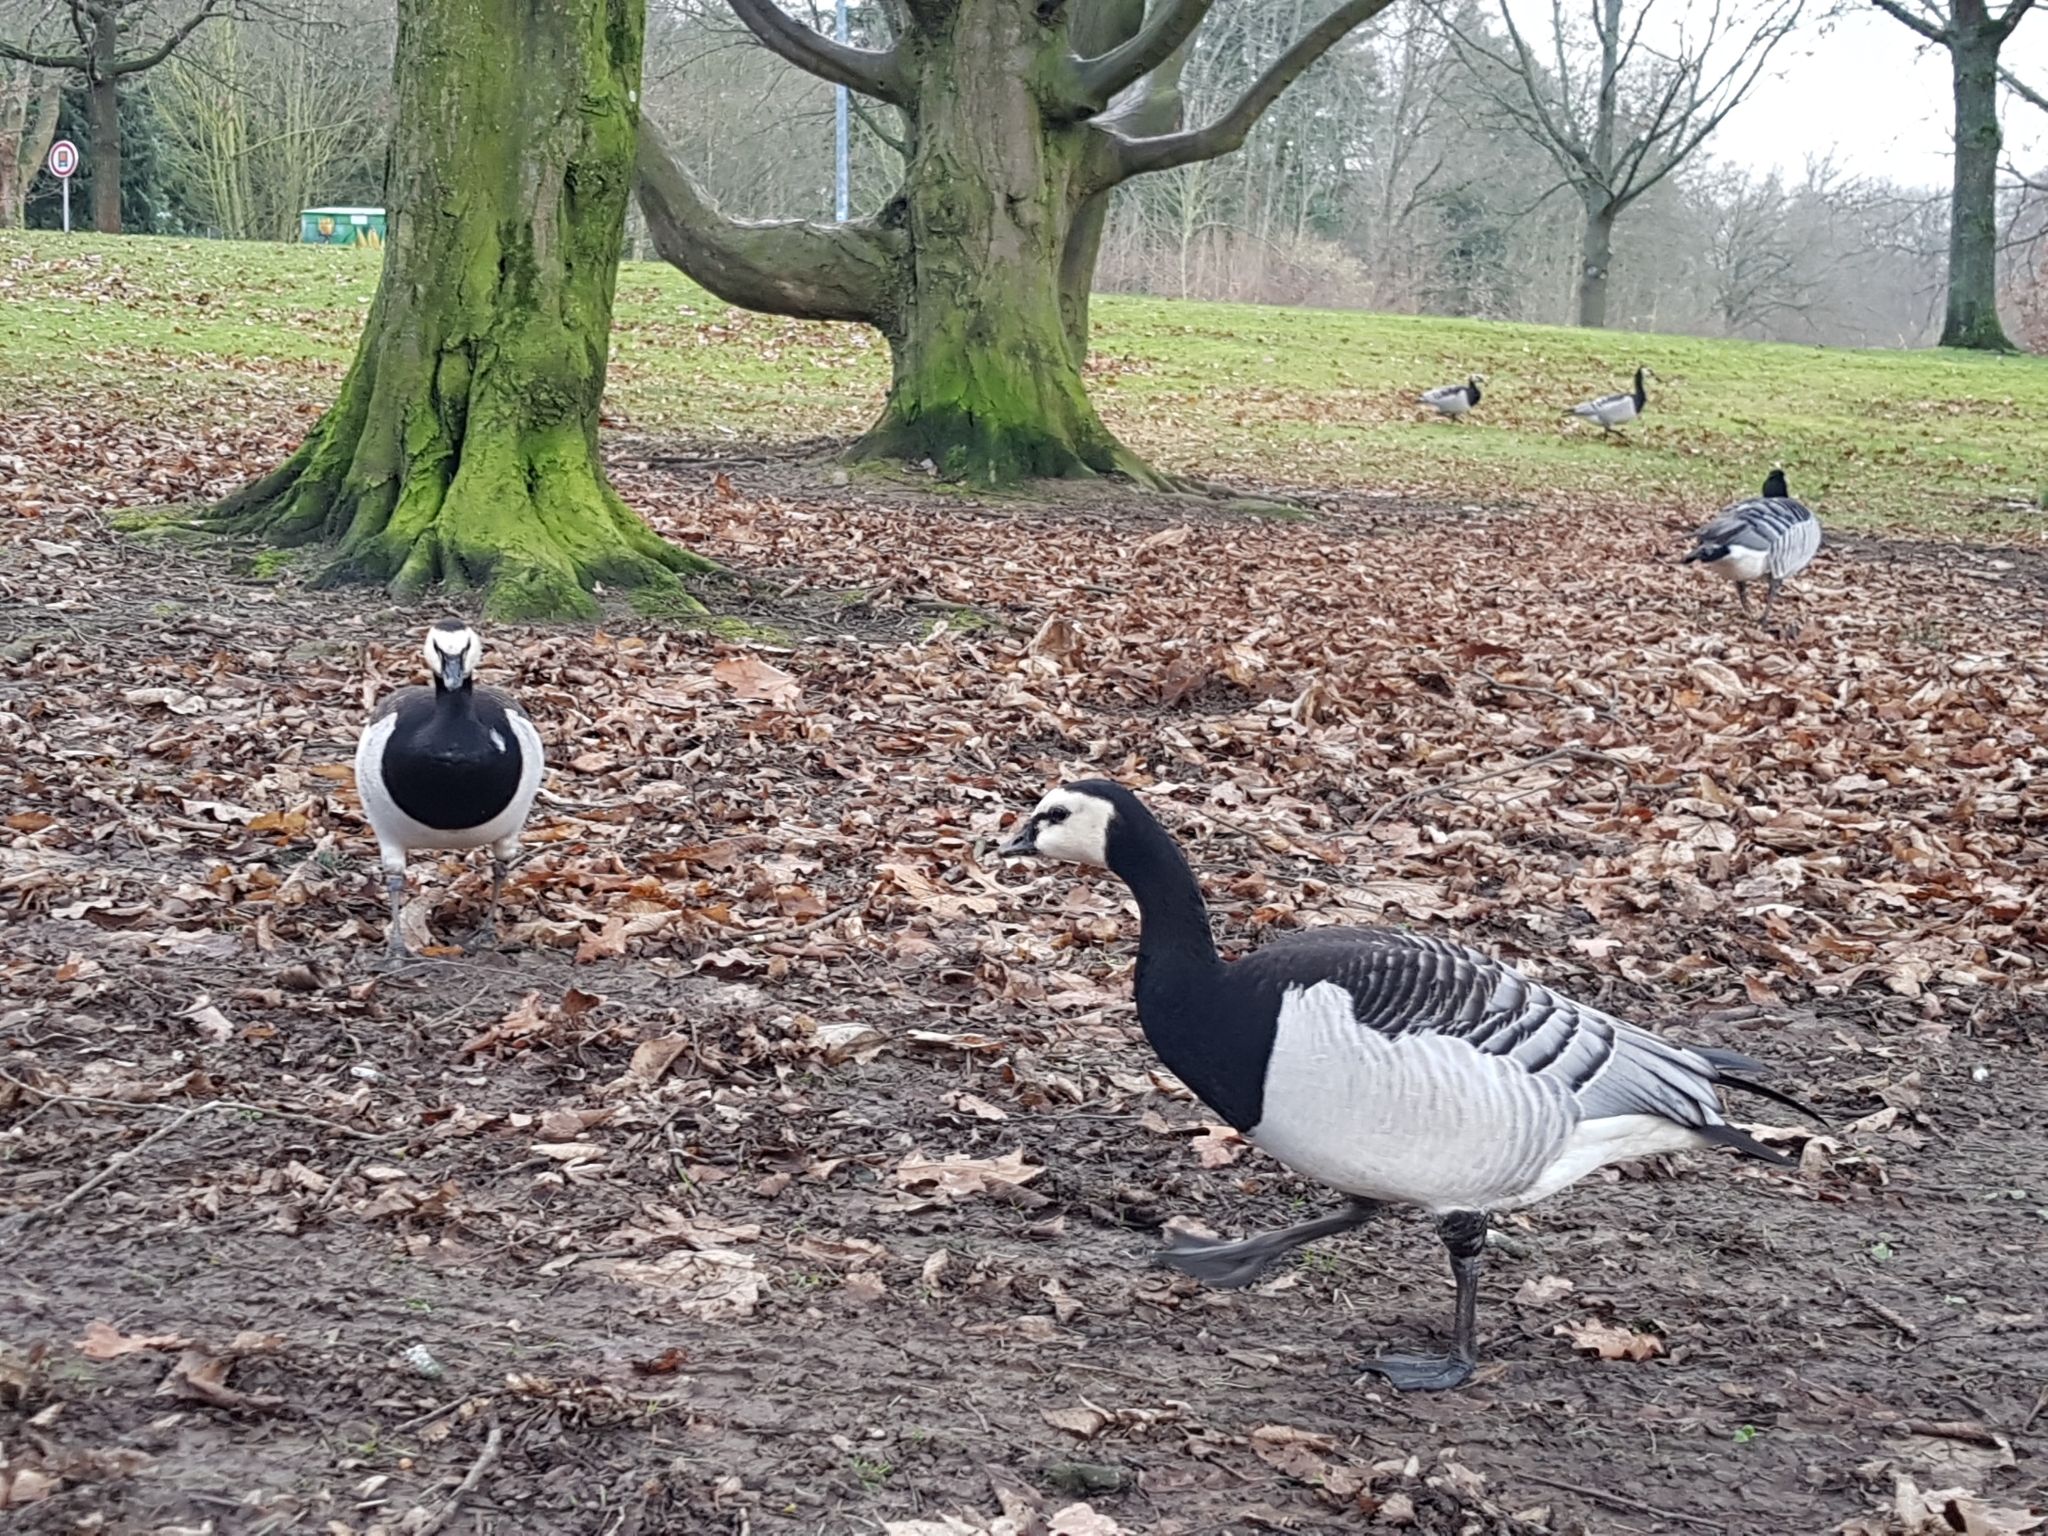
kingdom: Animalia
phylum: Chordata
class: Aves
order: Anseriformes
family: Anatidae
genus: Branta
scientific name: Branta leucopsis
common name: Barnacle goose
